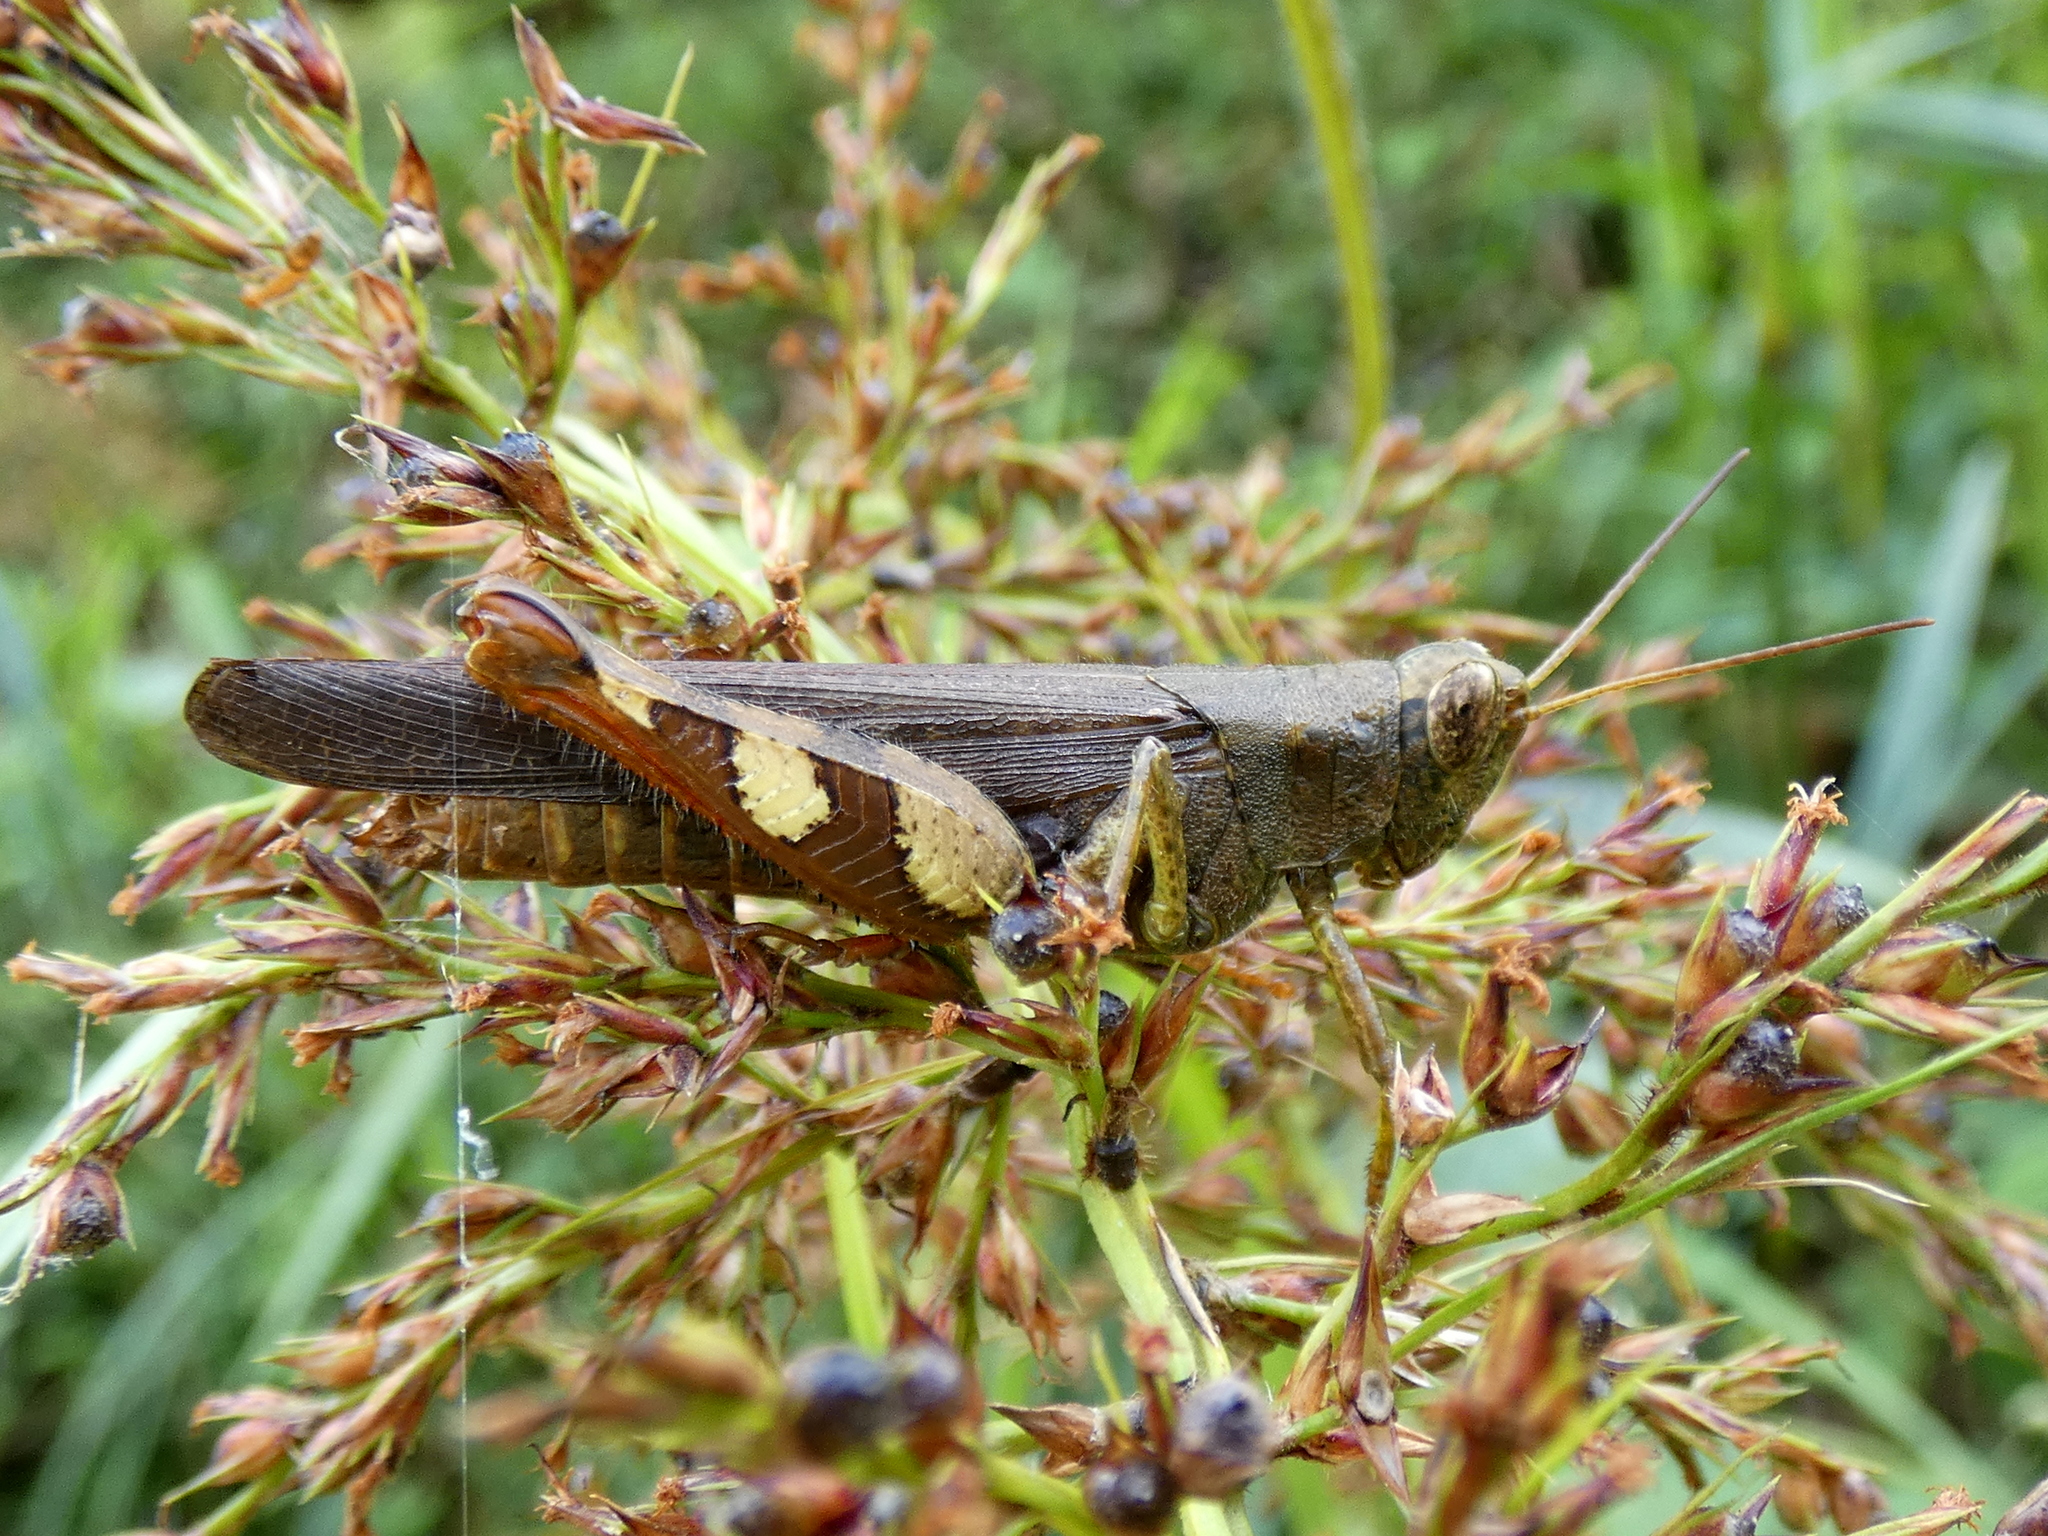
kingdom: Animalia
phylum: Arthropoda
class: Insecta
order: Orthoptera
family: Acrididae
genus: Xenocatantops
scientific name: Xenocatantops humile
